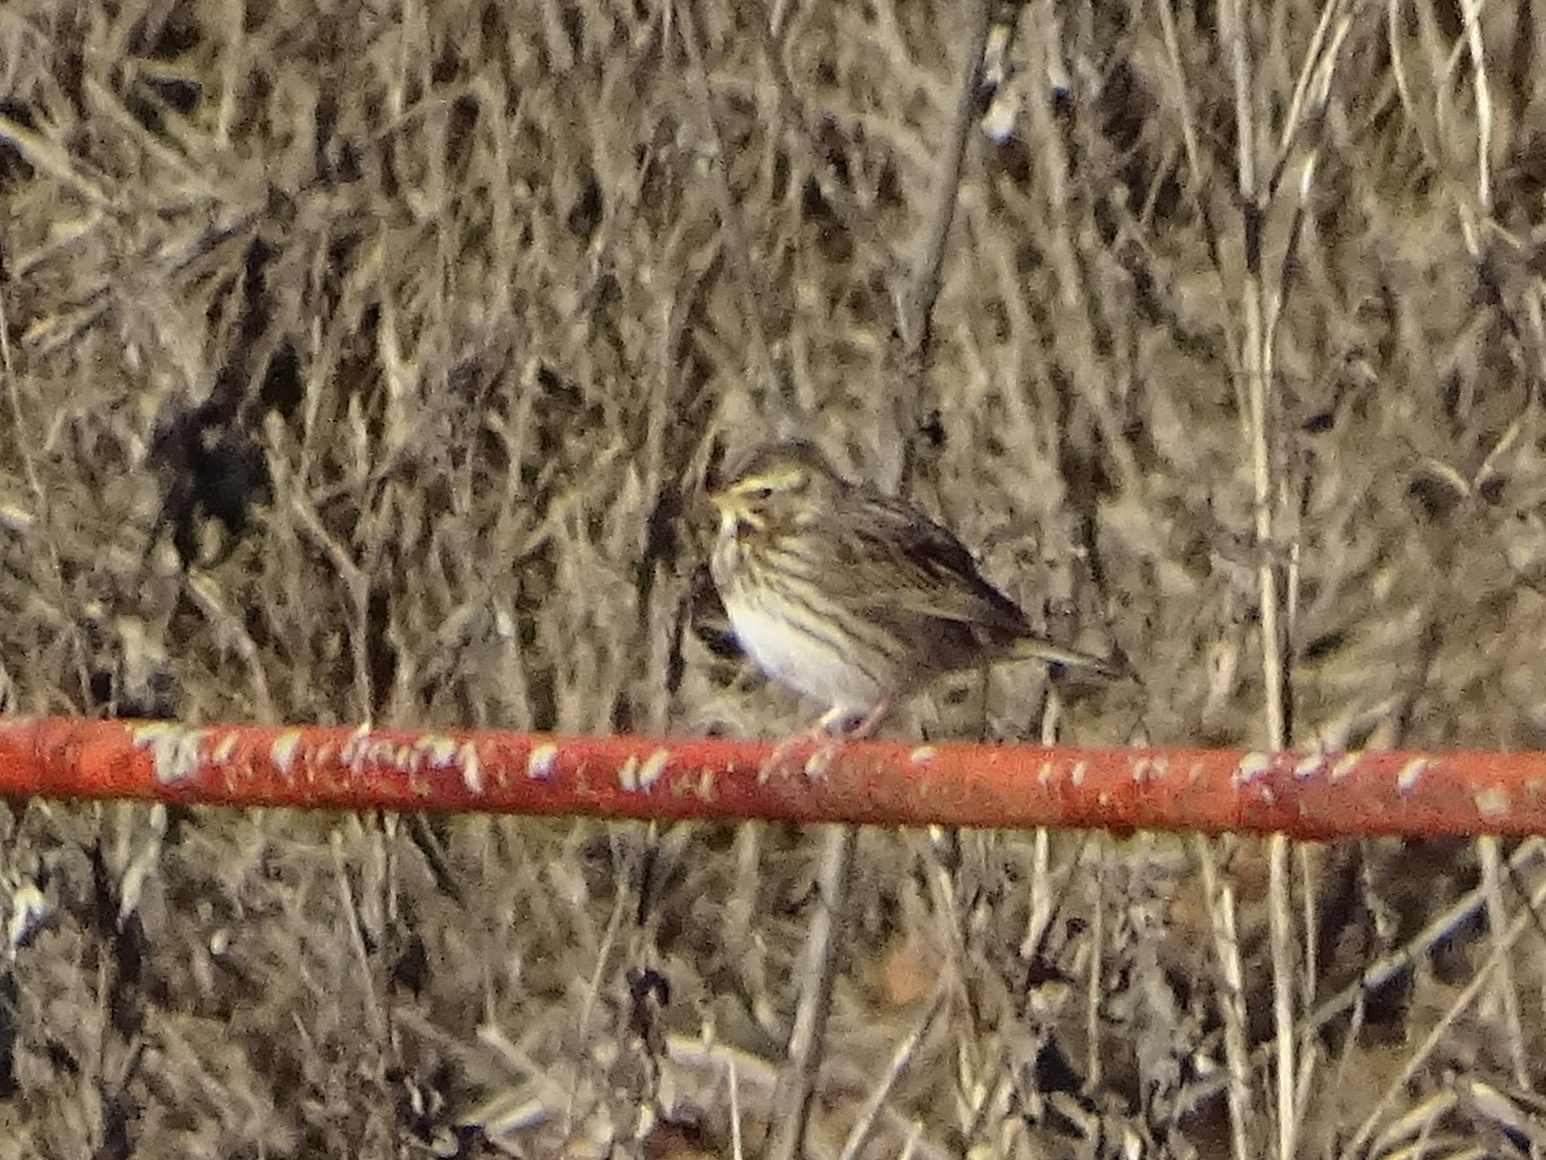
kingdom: Animalia
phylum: Chordata
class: Aves
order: Passeriformes
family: Passerellidae
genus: Passerculus
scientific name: Passerculus sandwichensis
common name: Savannah sparrow
